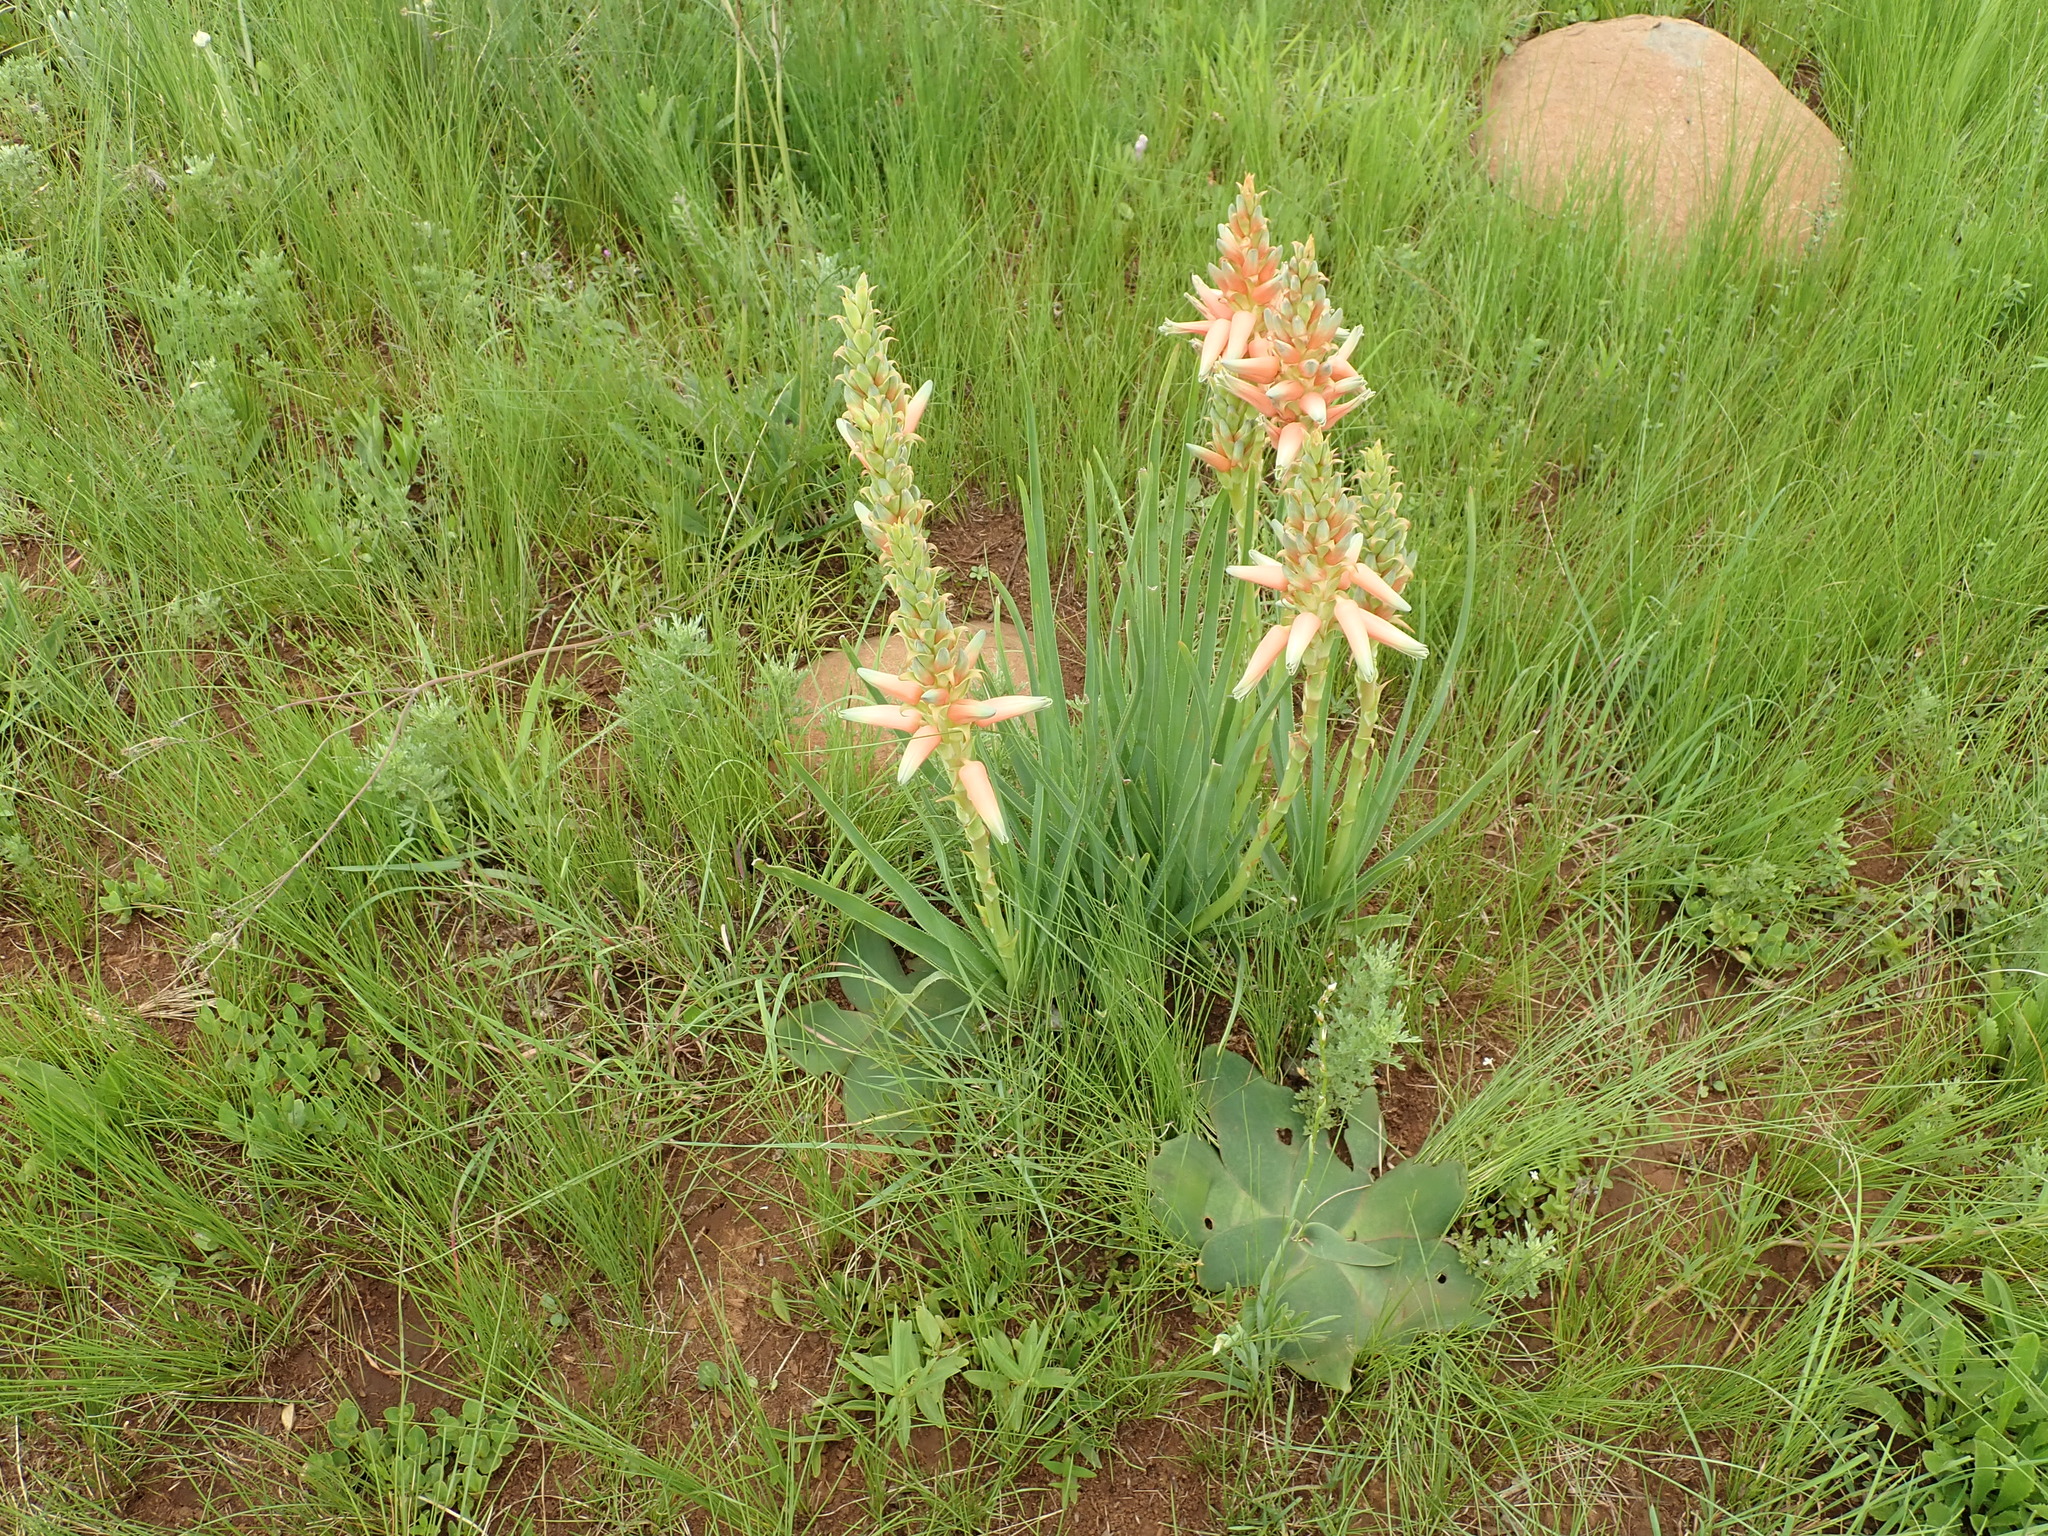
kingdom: Plantae
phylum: Tracheophyta
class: Liliopsida
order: Asparagales
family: Asphodelaceae
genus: Aloe
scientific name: Aloe cooperi
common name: Cooper's aloe
